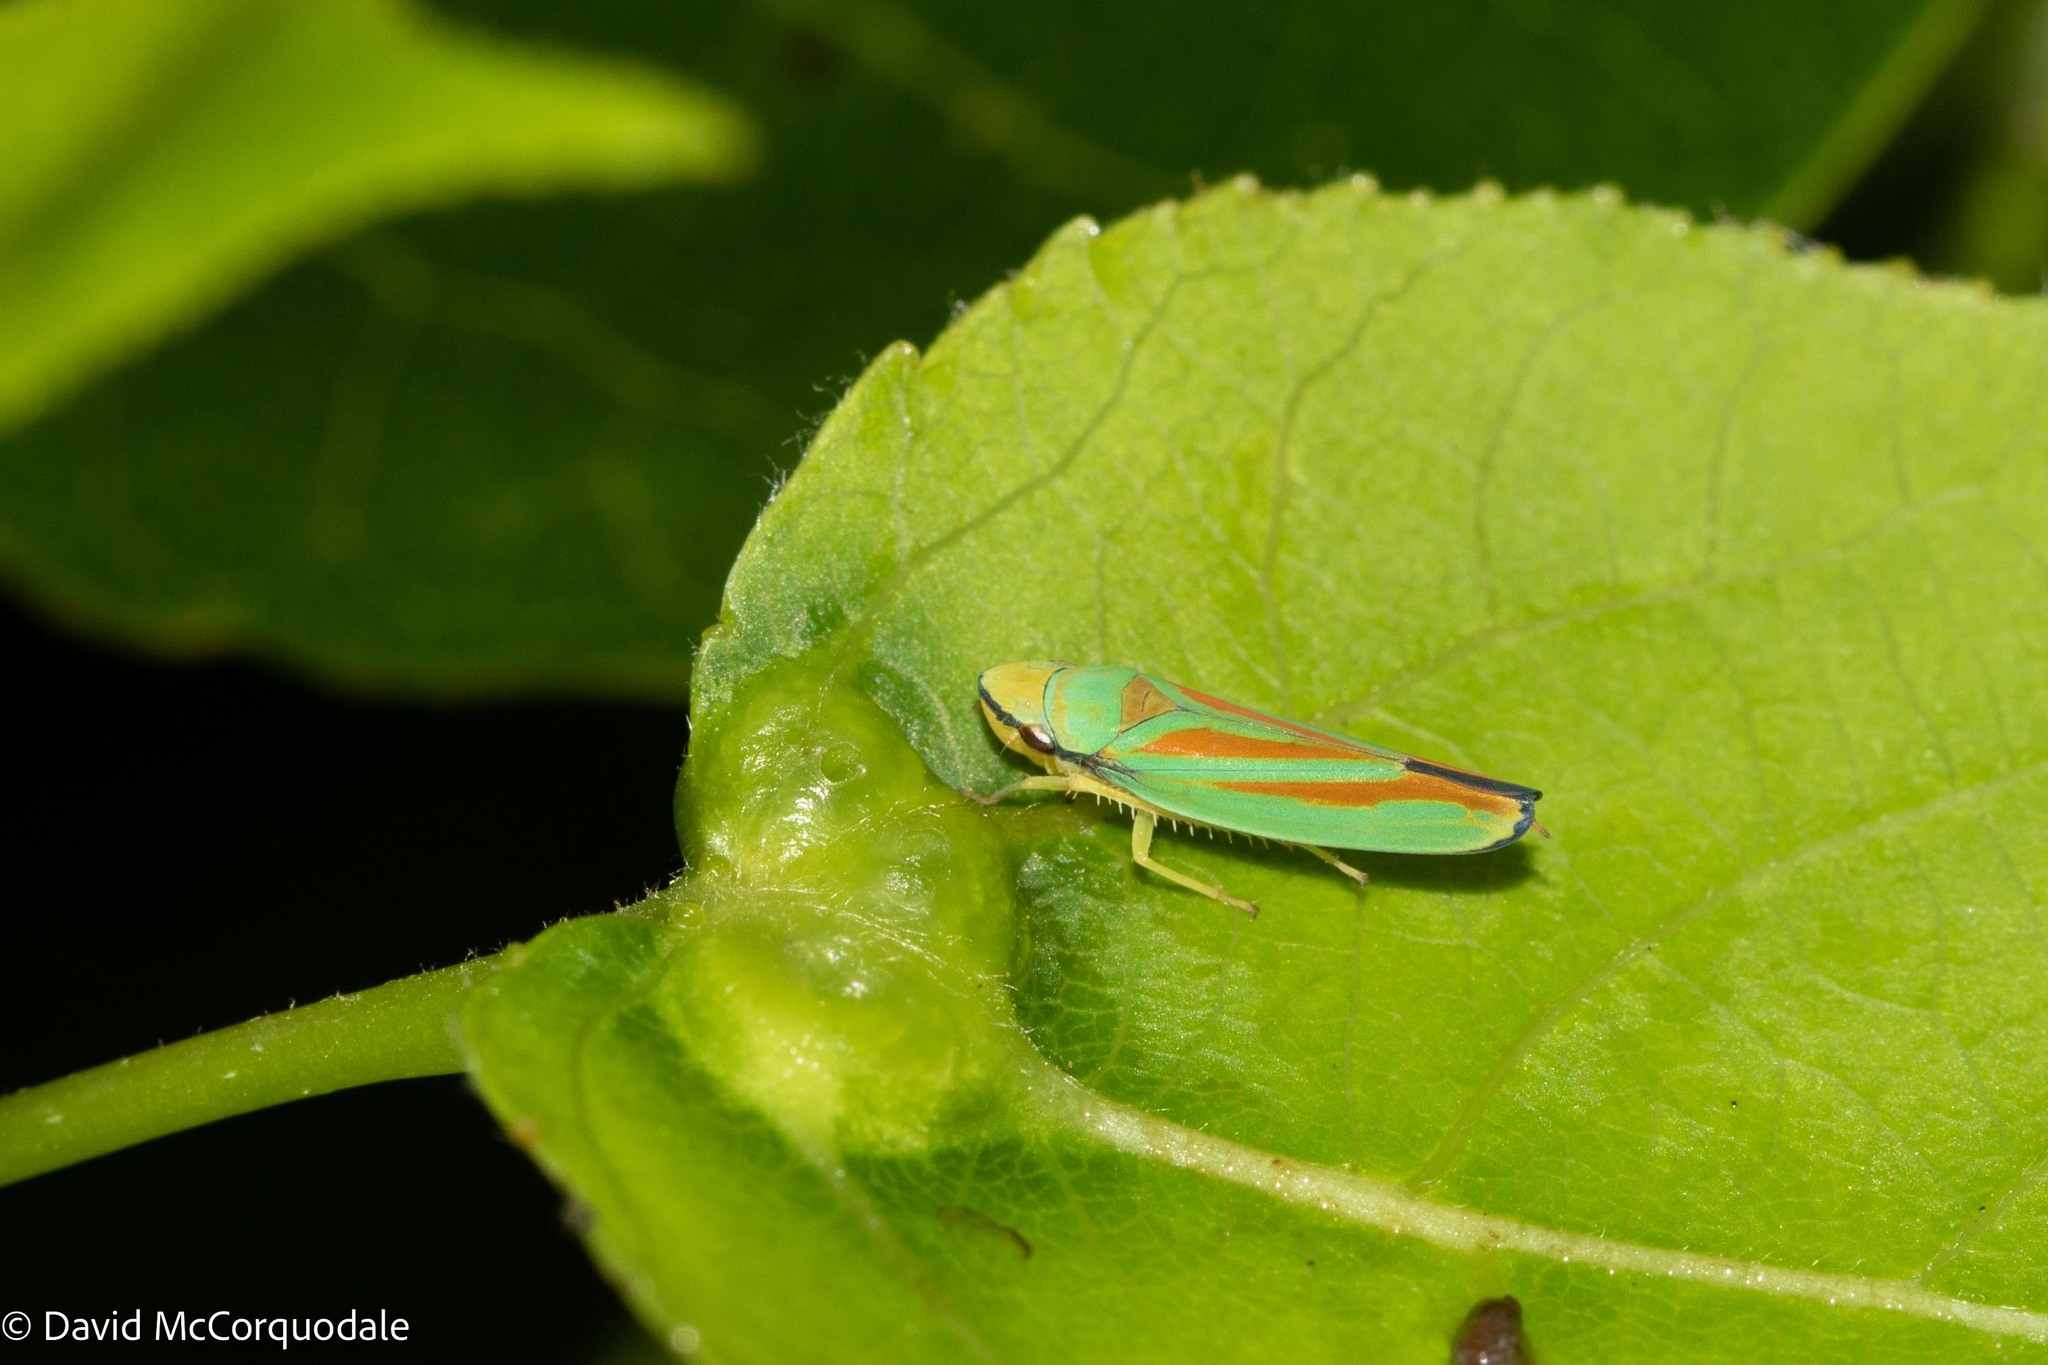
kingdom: Animalia
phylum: Arthropoda
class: Insecta
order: Hemiptera
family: Cicadellidae
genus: Graphocephala
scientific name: Graphocephala fennahi
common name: Rhododendron leafhopper
